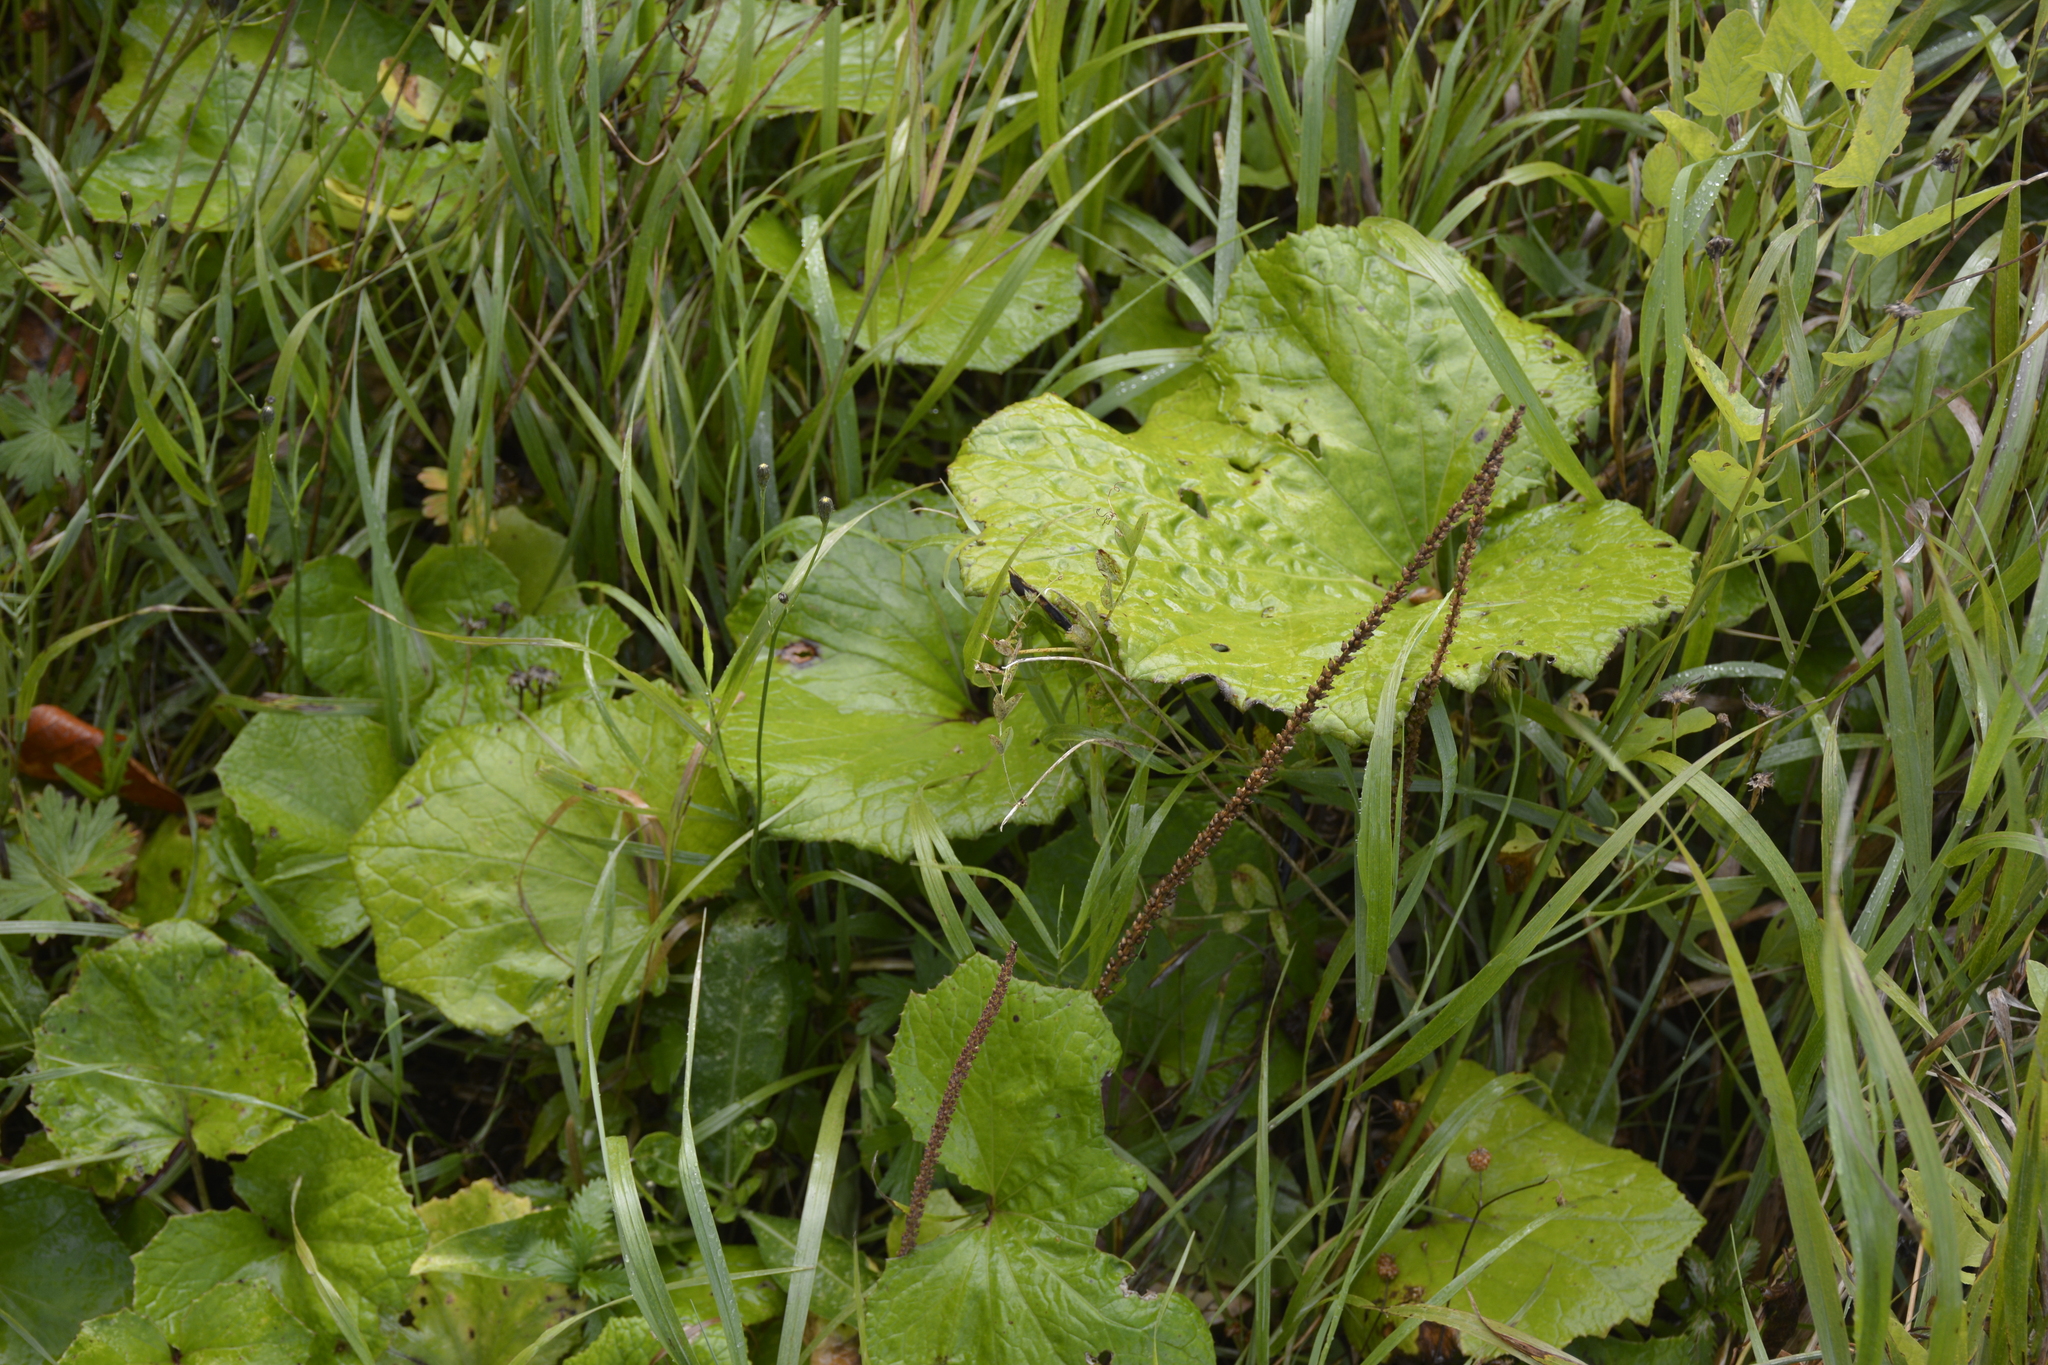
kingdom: Plantae
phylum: Tracheophyta
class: Magnoliopsida
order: Asterales
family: Asteraceae
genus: Tussilago
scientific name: Tussilago farfara
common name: Coltsfoot
